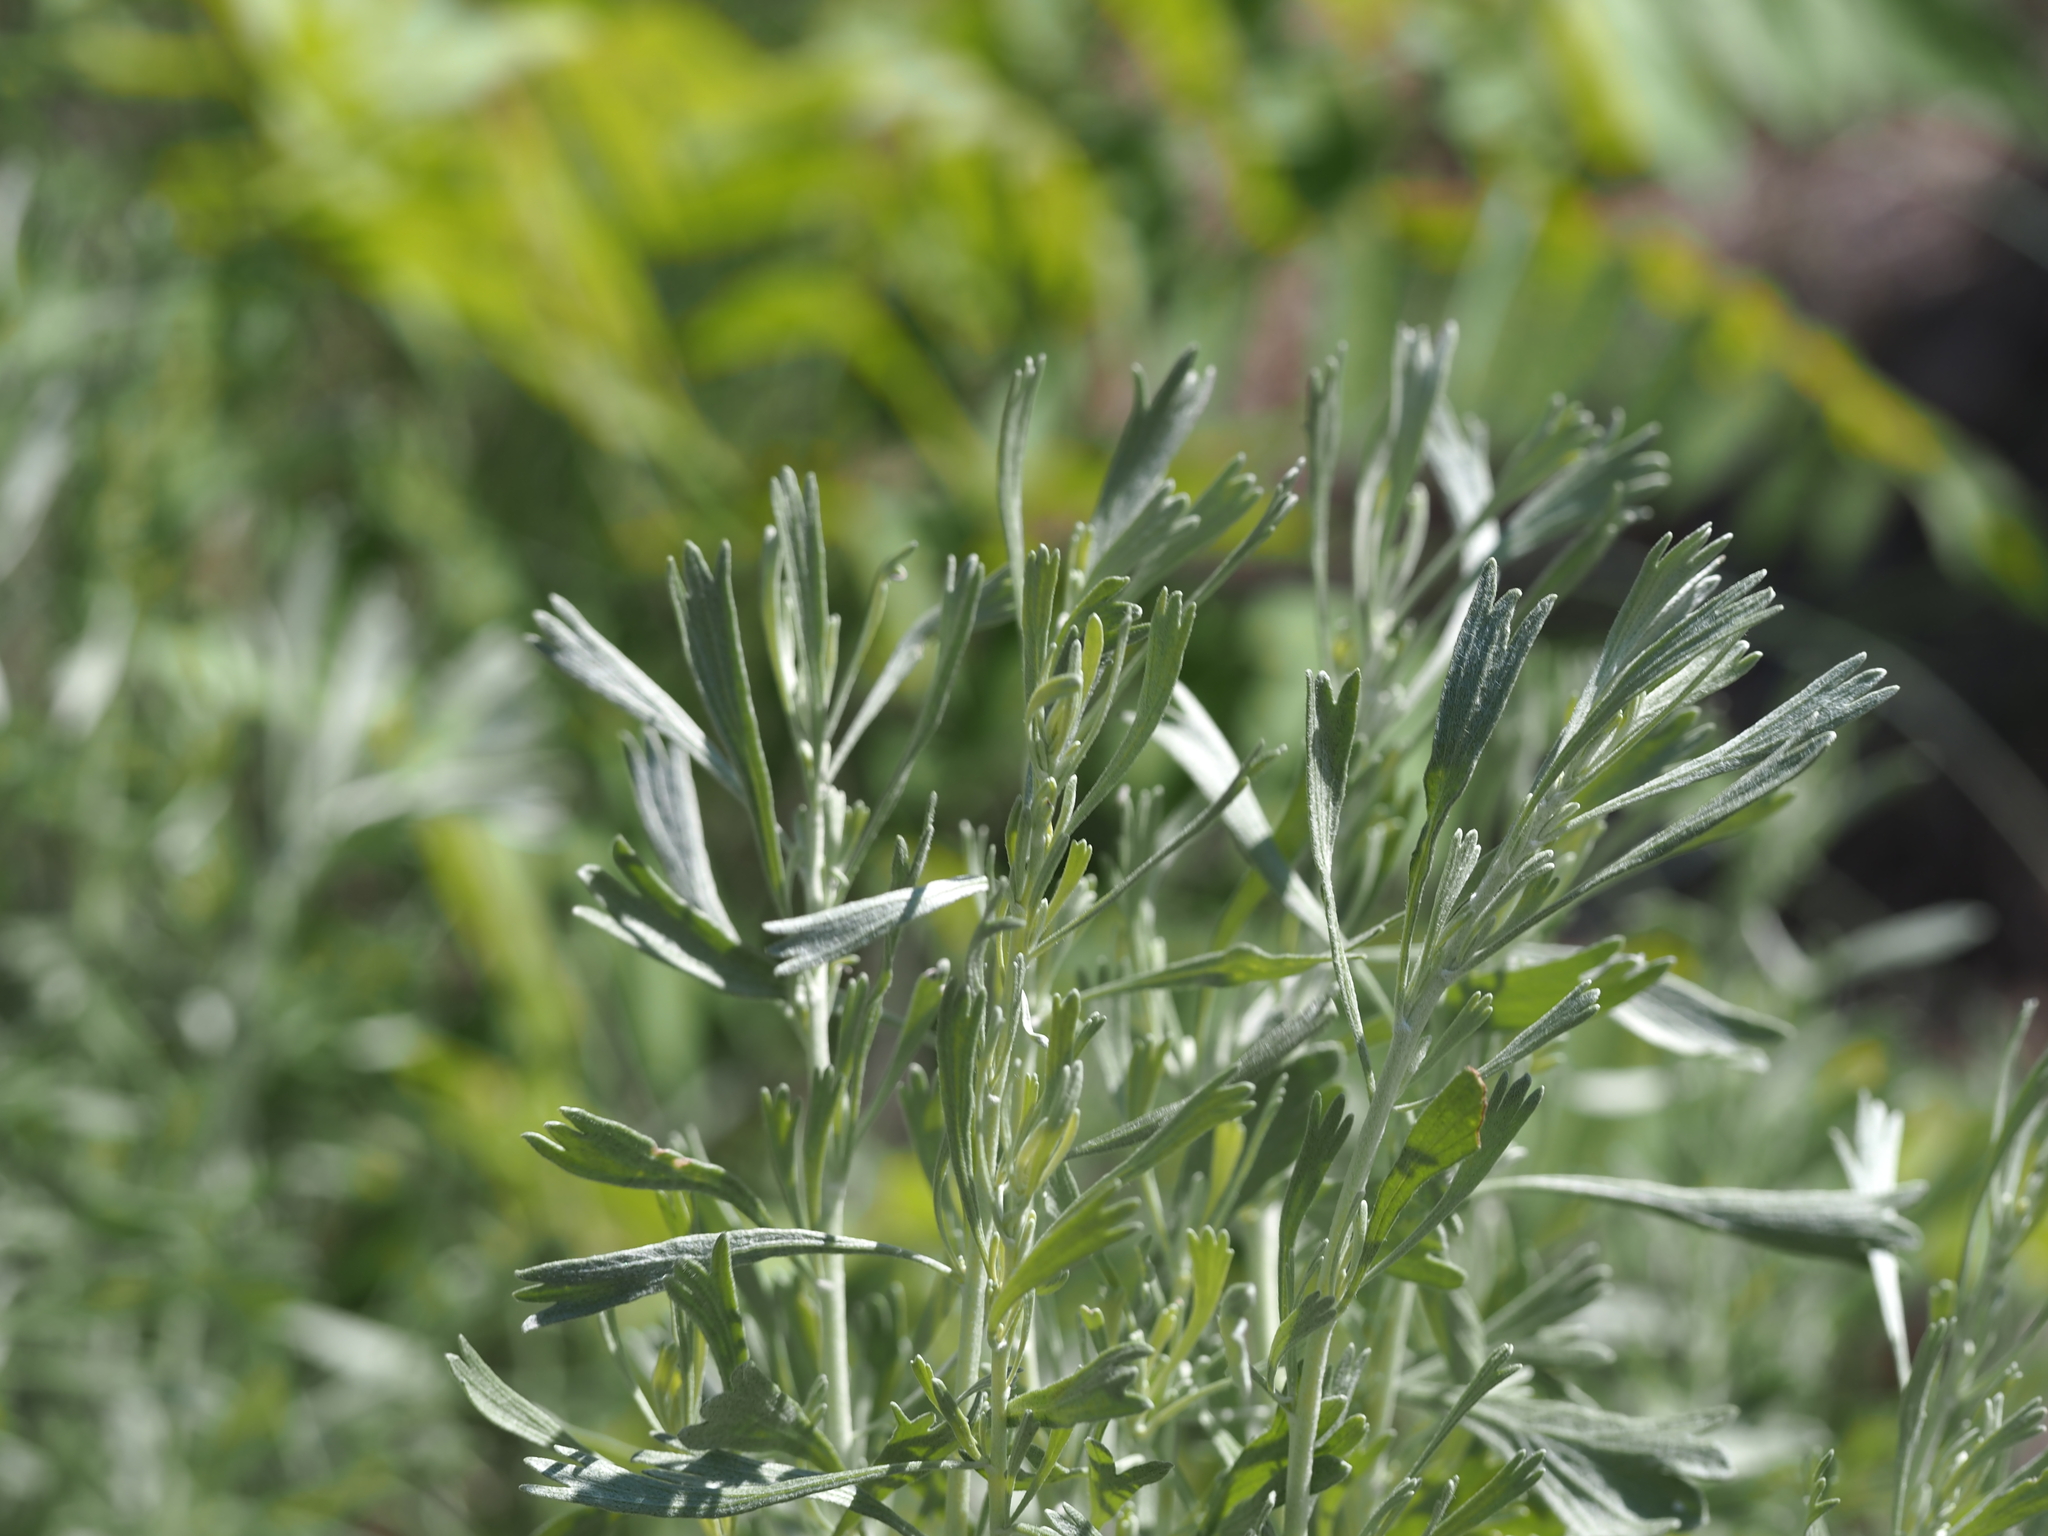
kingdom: Plantae
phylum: Tracheophyta
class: Magnoliopsida
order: Asterales
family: Asteraceae
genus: Artemisia
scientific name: Artemisia tridentata
